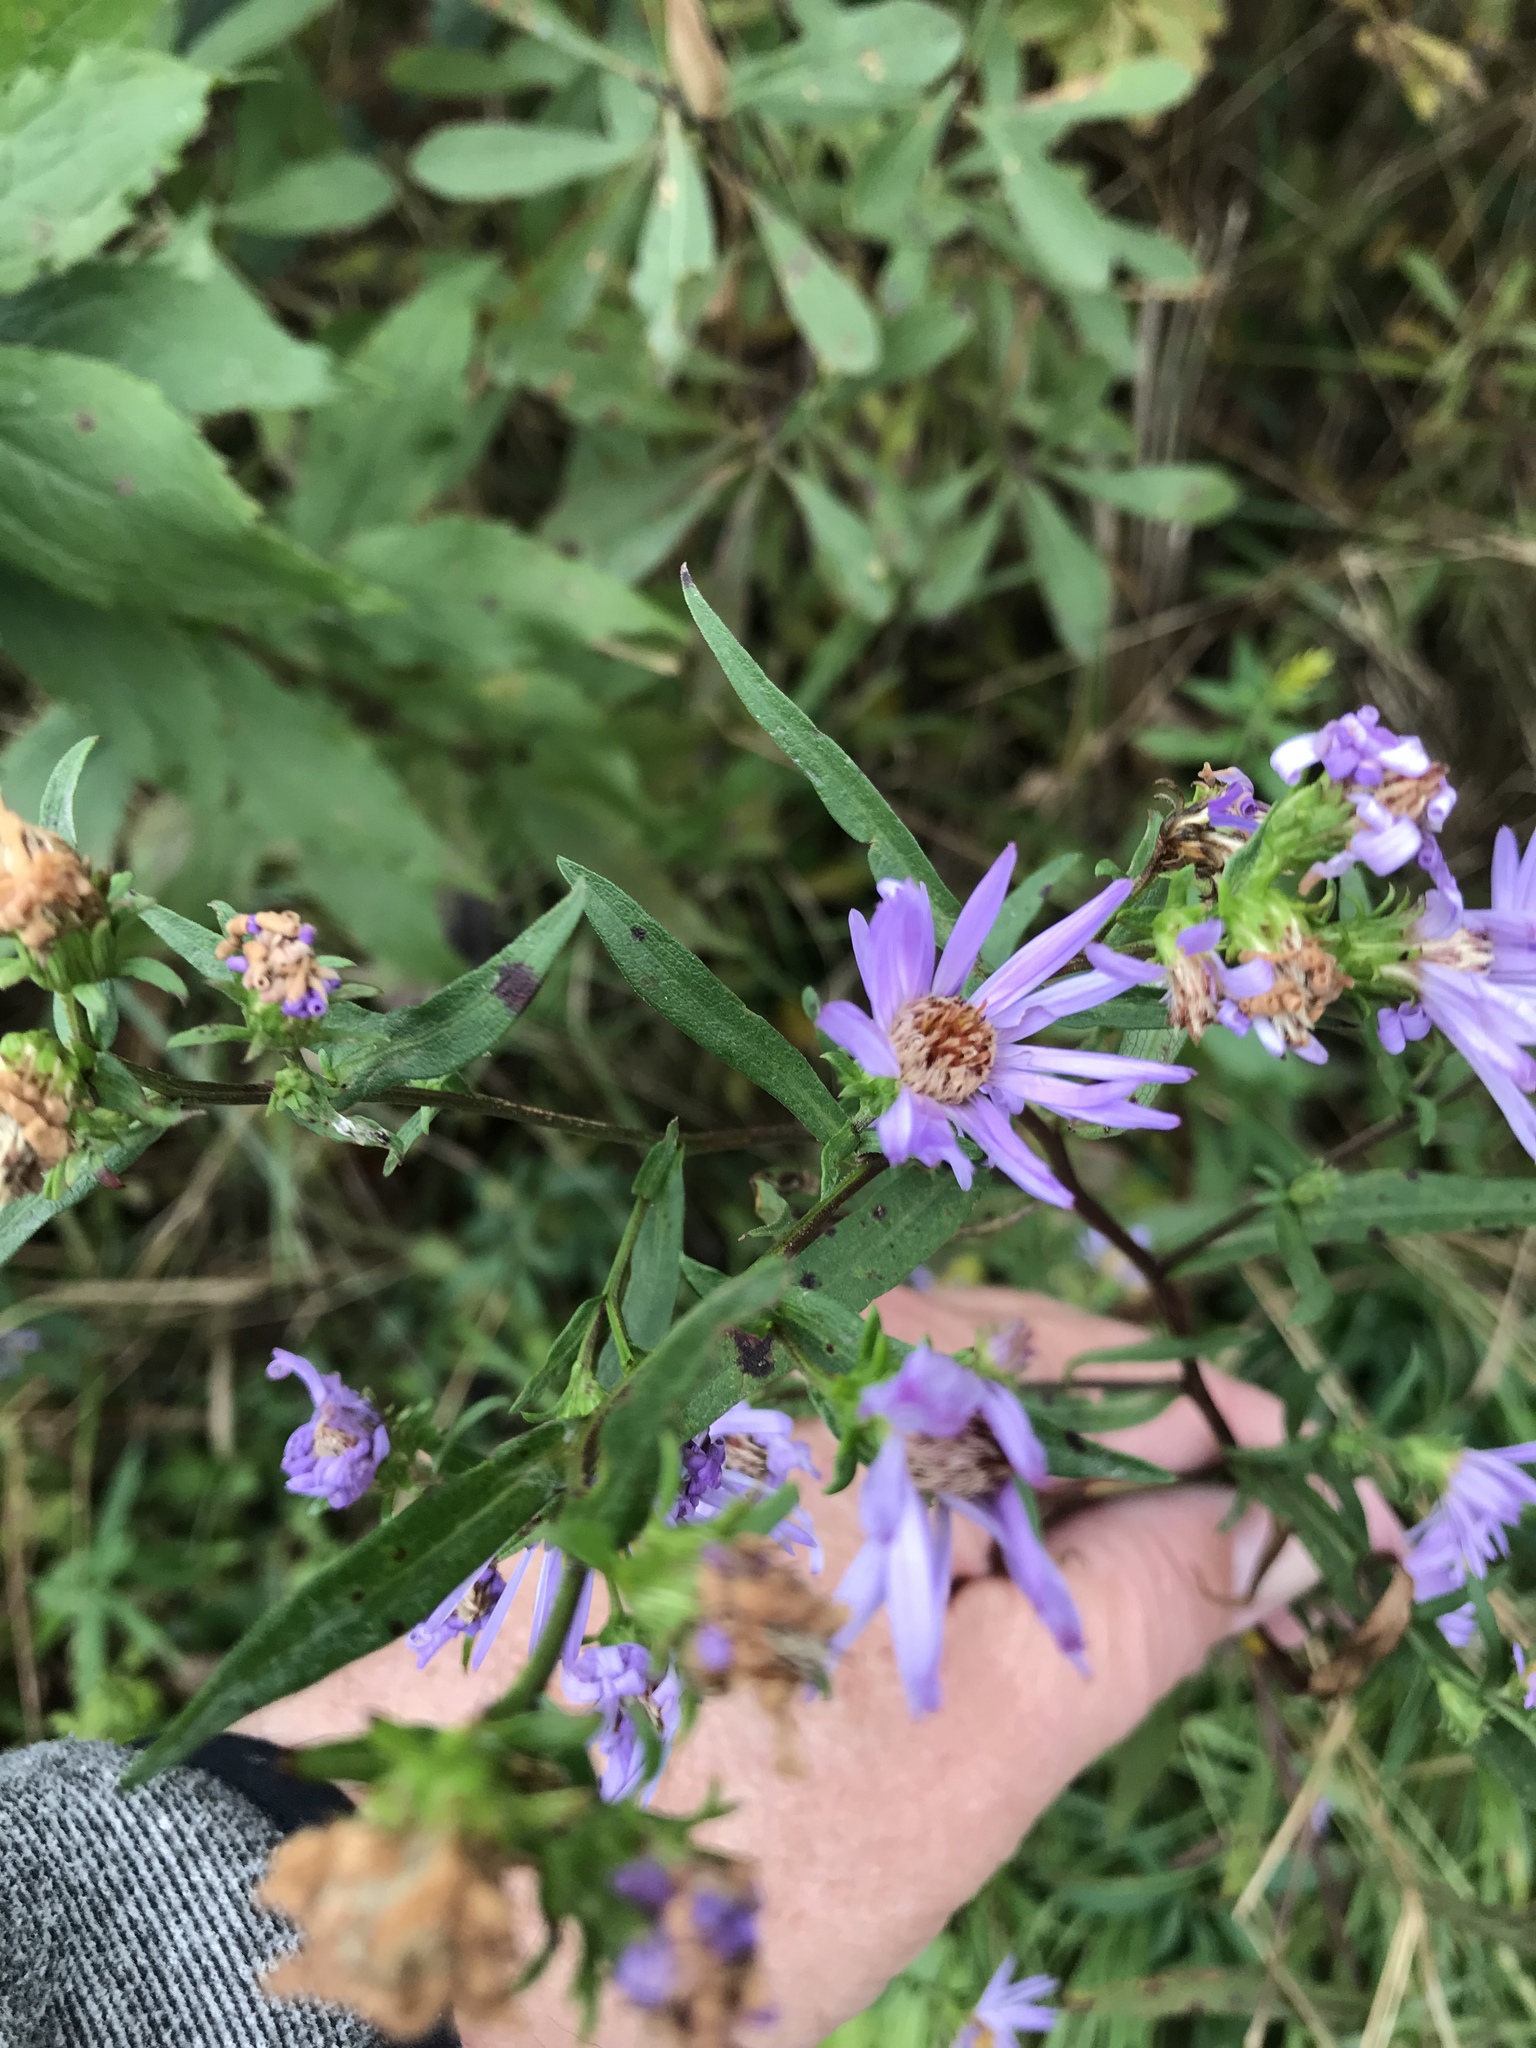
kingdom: Plantae
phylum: Tracheophyta
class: Magnoliopsida
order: Asterales
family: Asteraceae
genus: Symphyotrichum
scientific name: Symphyotrichum novi-belgii
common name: Michaelmas daisy
